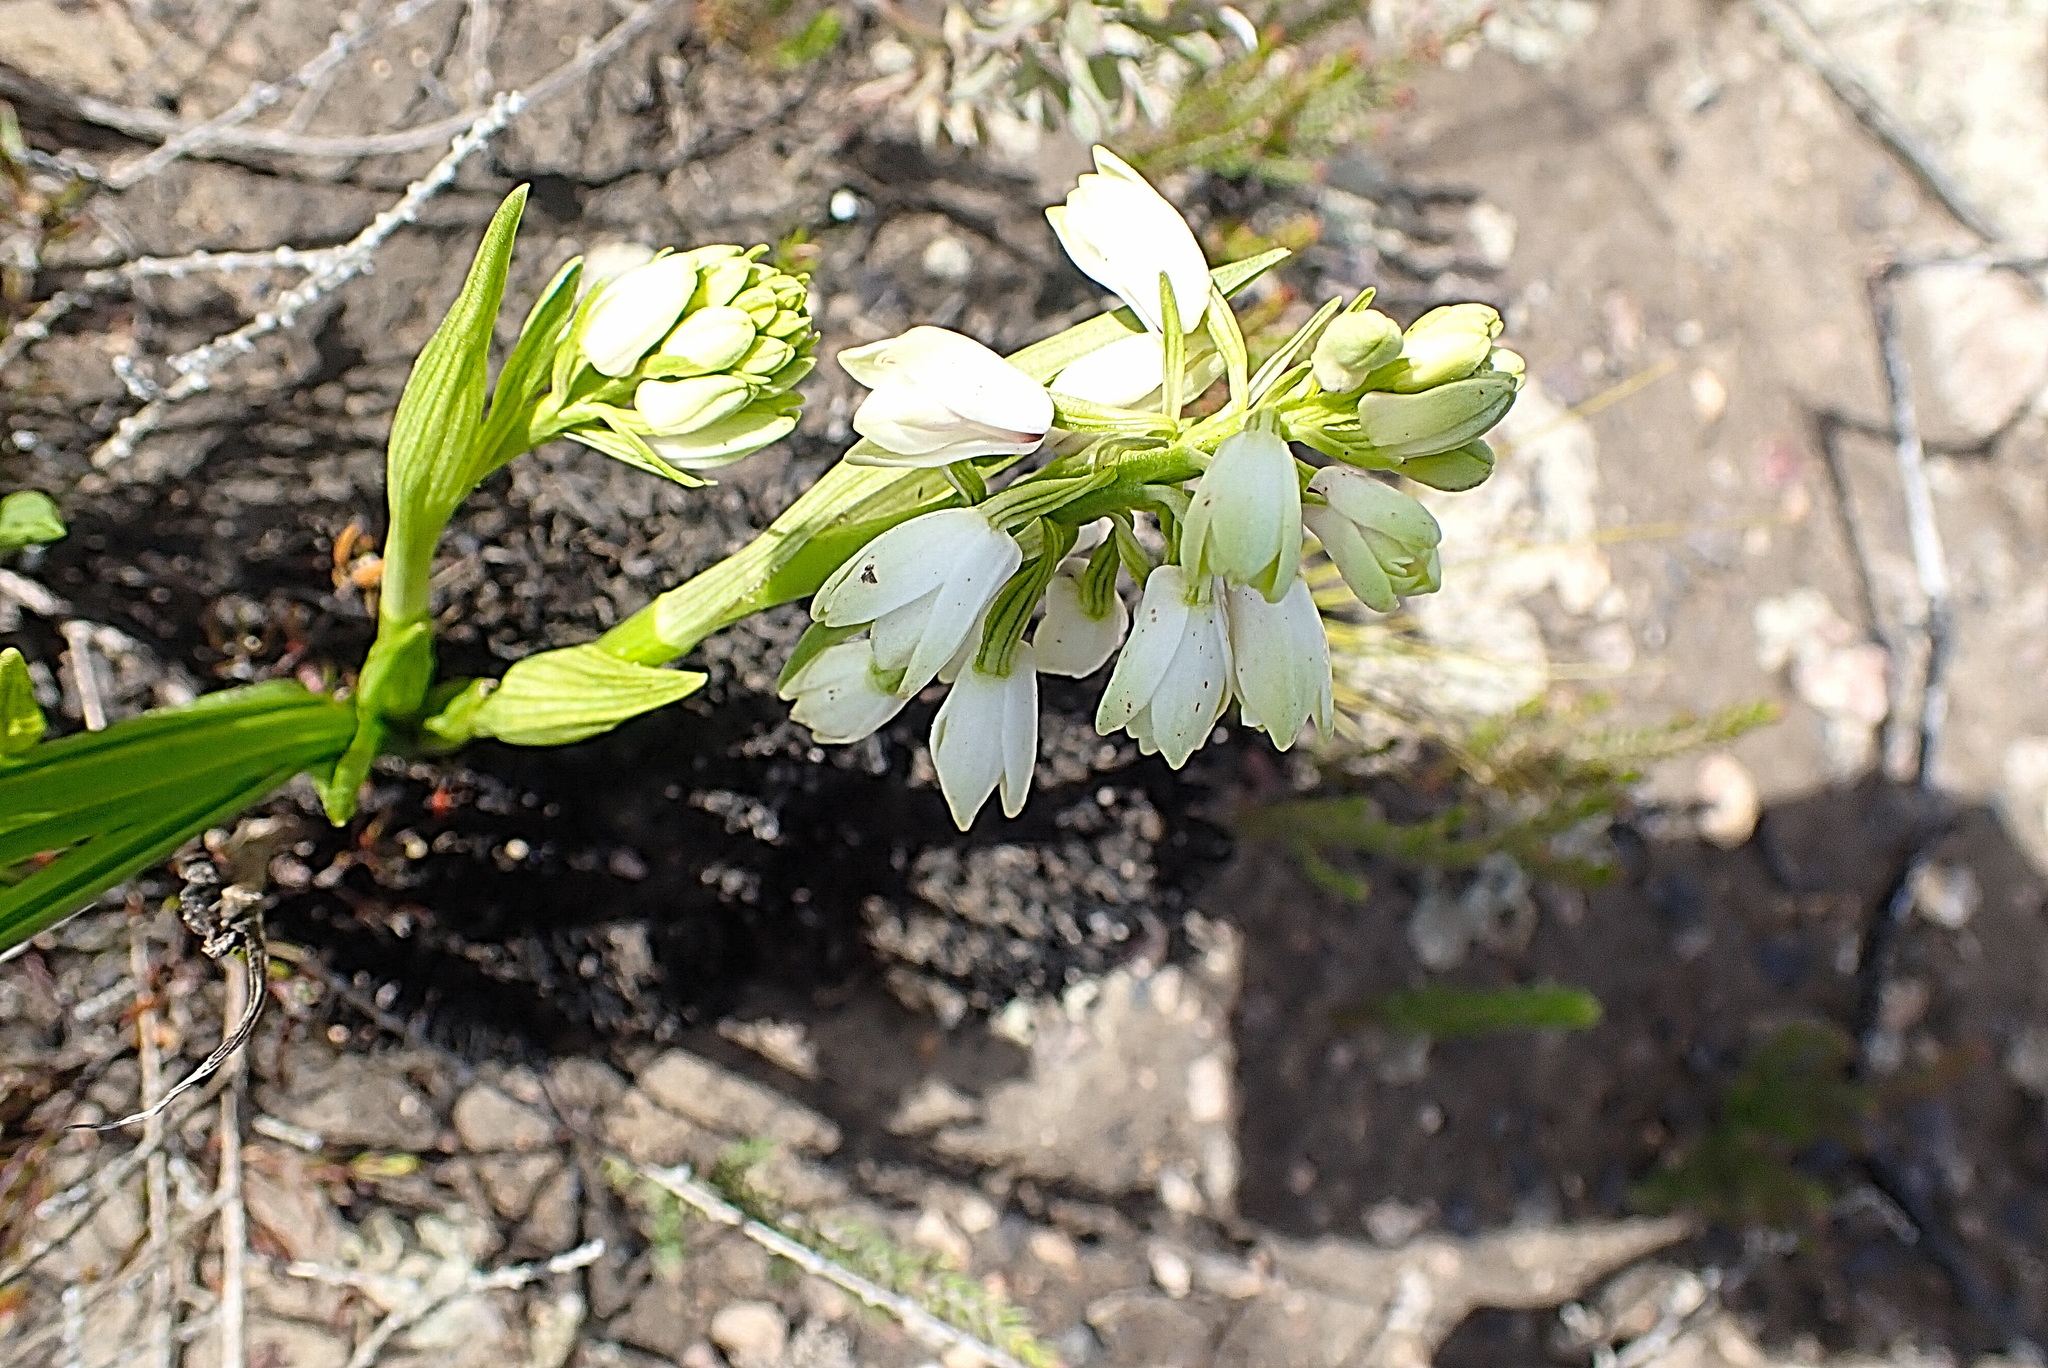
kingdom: Plantae
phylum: Tracheophyta
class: Liliopsida
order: Asparagales
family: Orchidaceae
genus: Eulophia
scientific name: Eulophia aculeata
